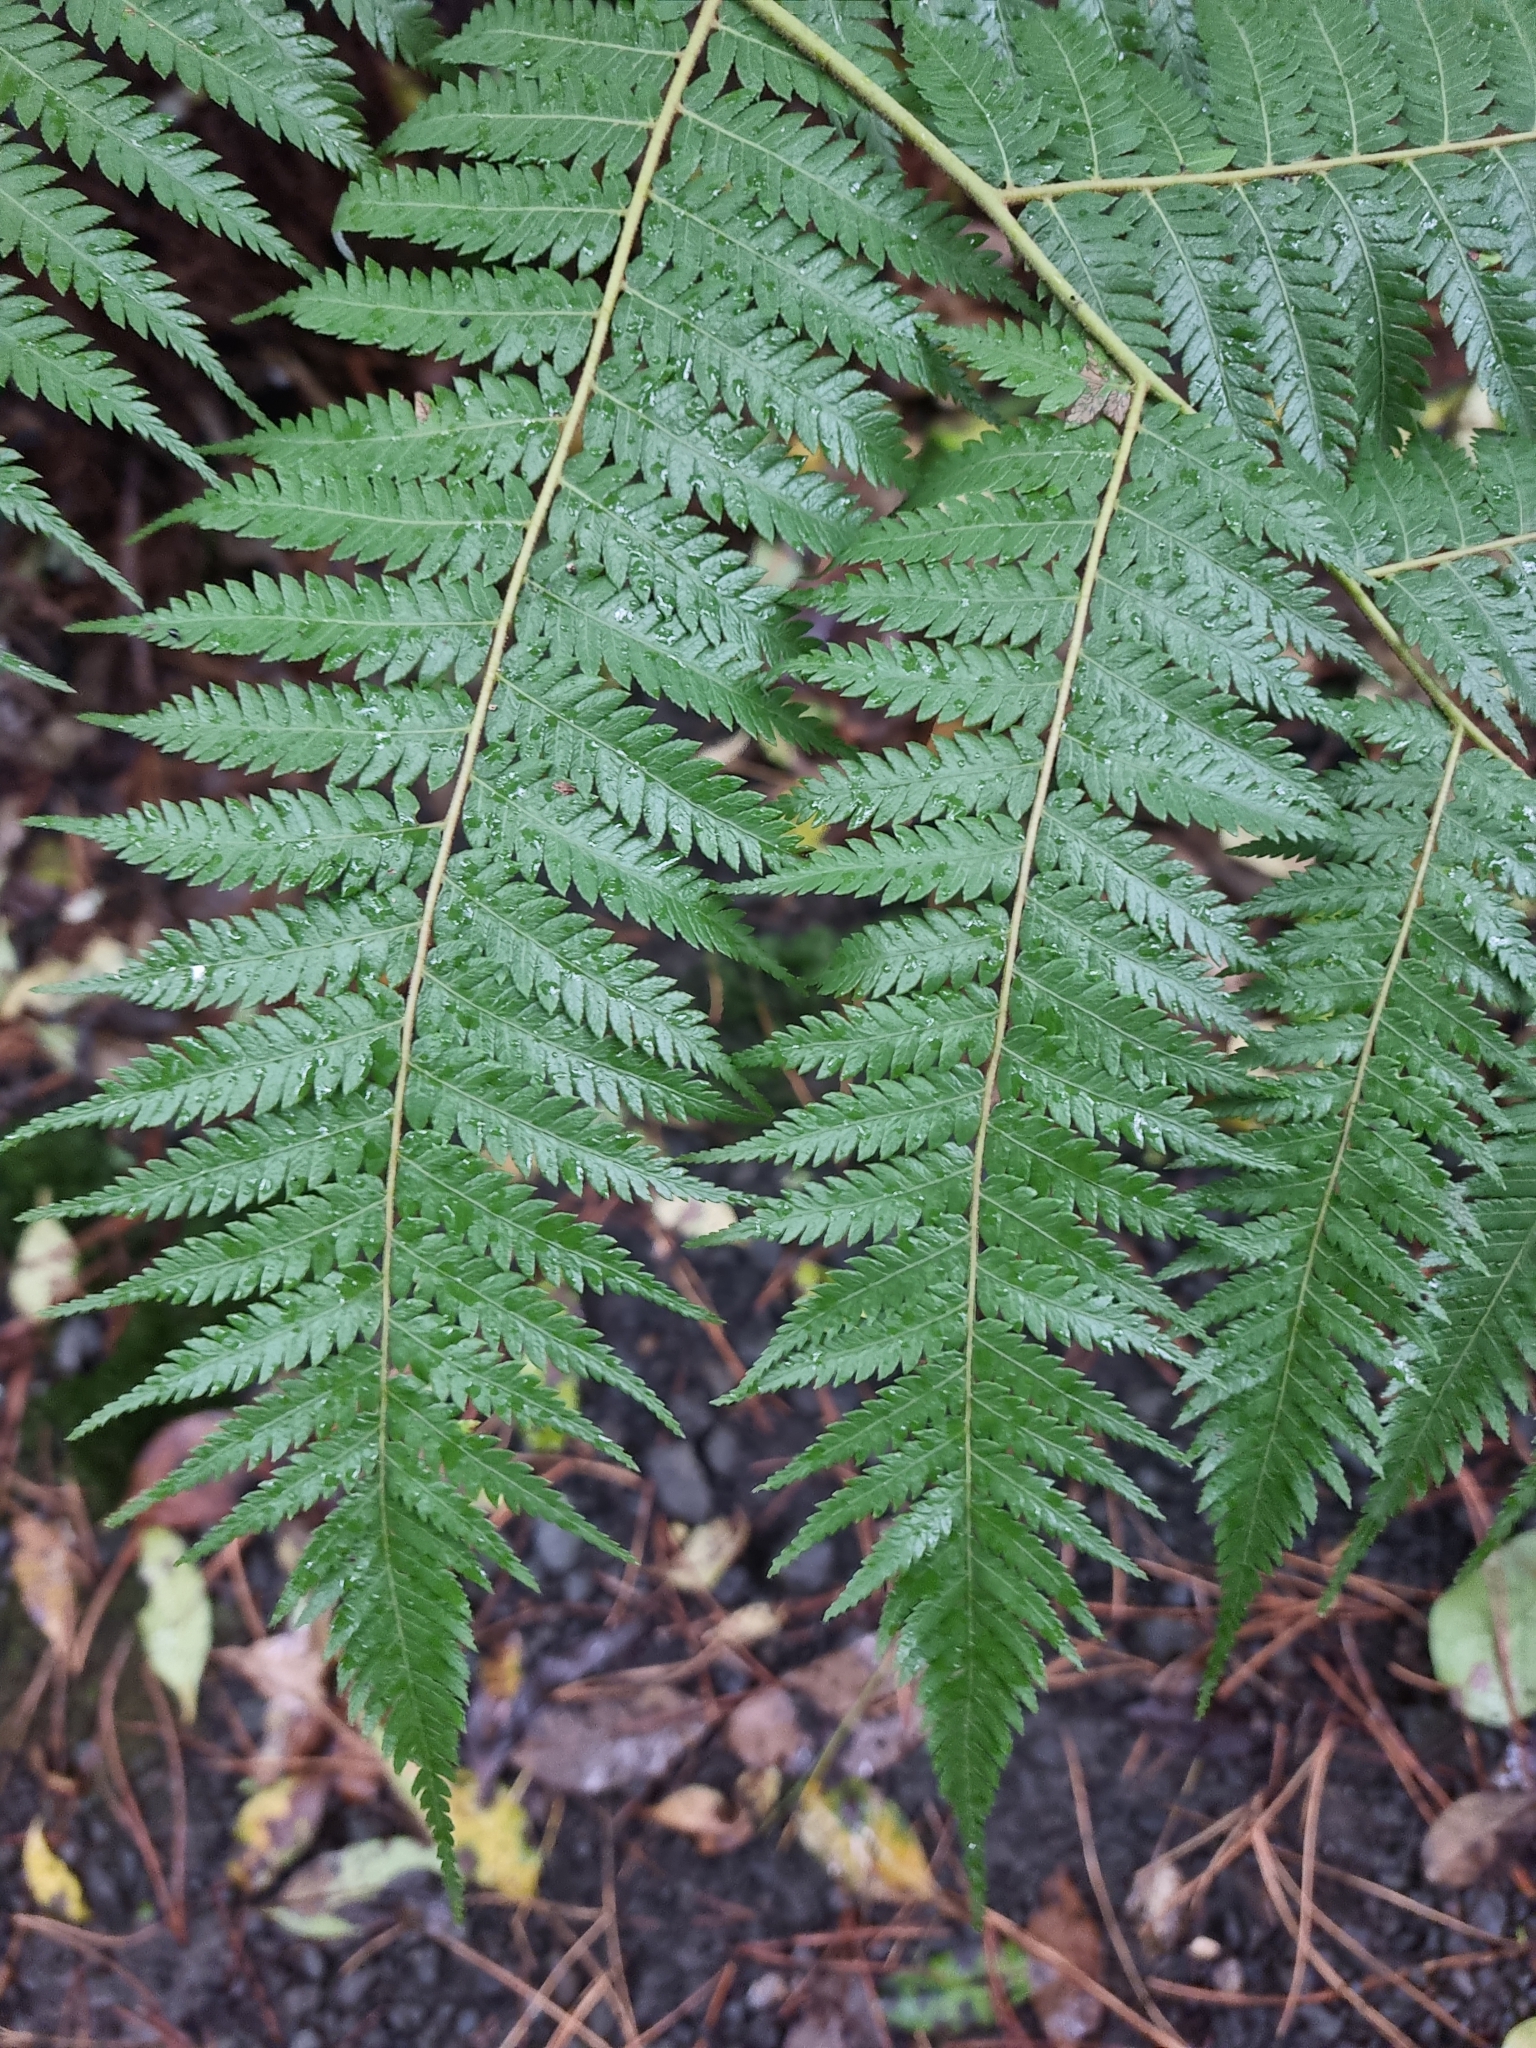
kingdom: Plantae
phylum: Tracheophyta
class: Polypodiopsida
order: Cyatheales
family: Cyatheaceae
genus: Alsophila
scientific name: Alsophila dealbata
